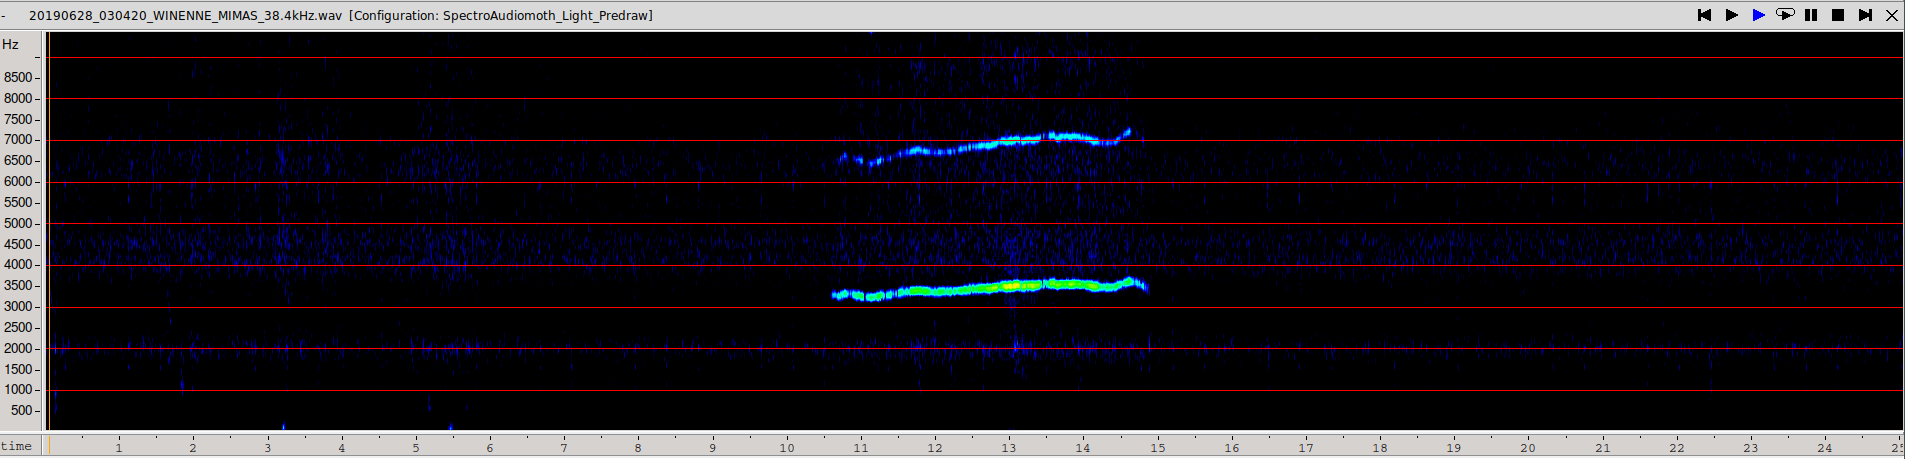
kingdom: Animalia
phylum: Chordata
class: Mammalia
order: Rodentia
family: Gliridae
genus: Muscardinus
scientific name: Muscardinus avellanarius
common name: Hazel dormouse
